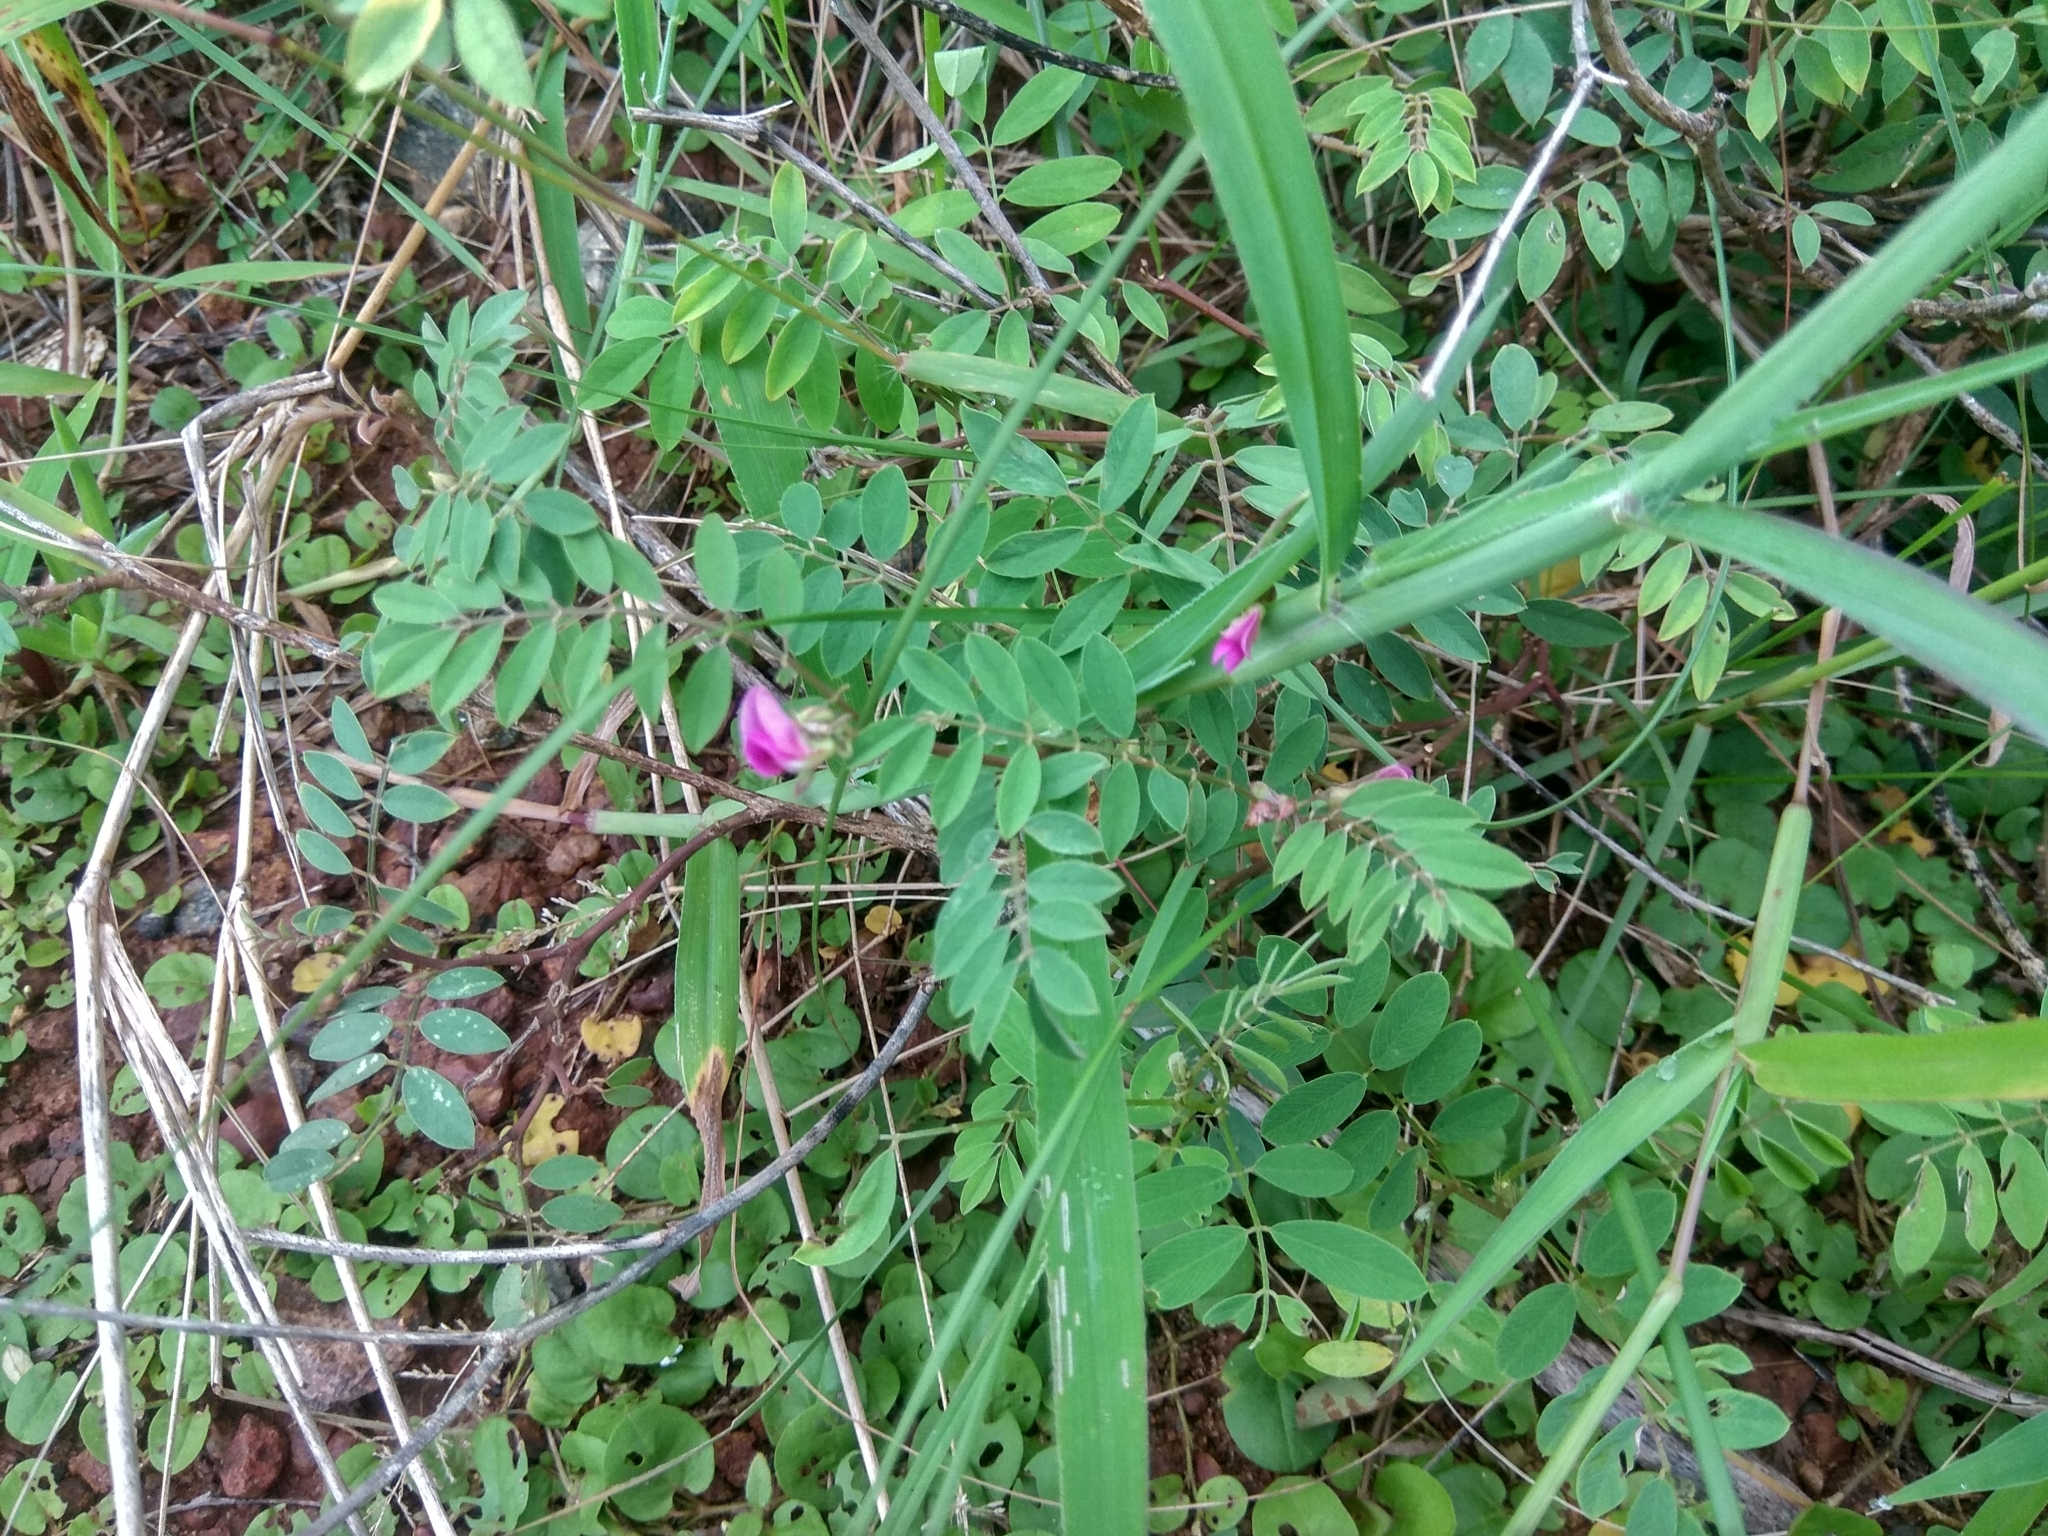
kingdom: Plantae
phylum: Tracheophyta
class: Magnoliopsida
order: Fabales
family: Fabaceae
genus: Tephrosia
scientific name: Tephrosia purpurea
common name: Fishpoison
